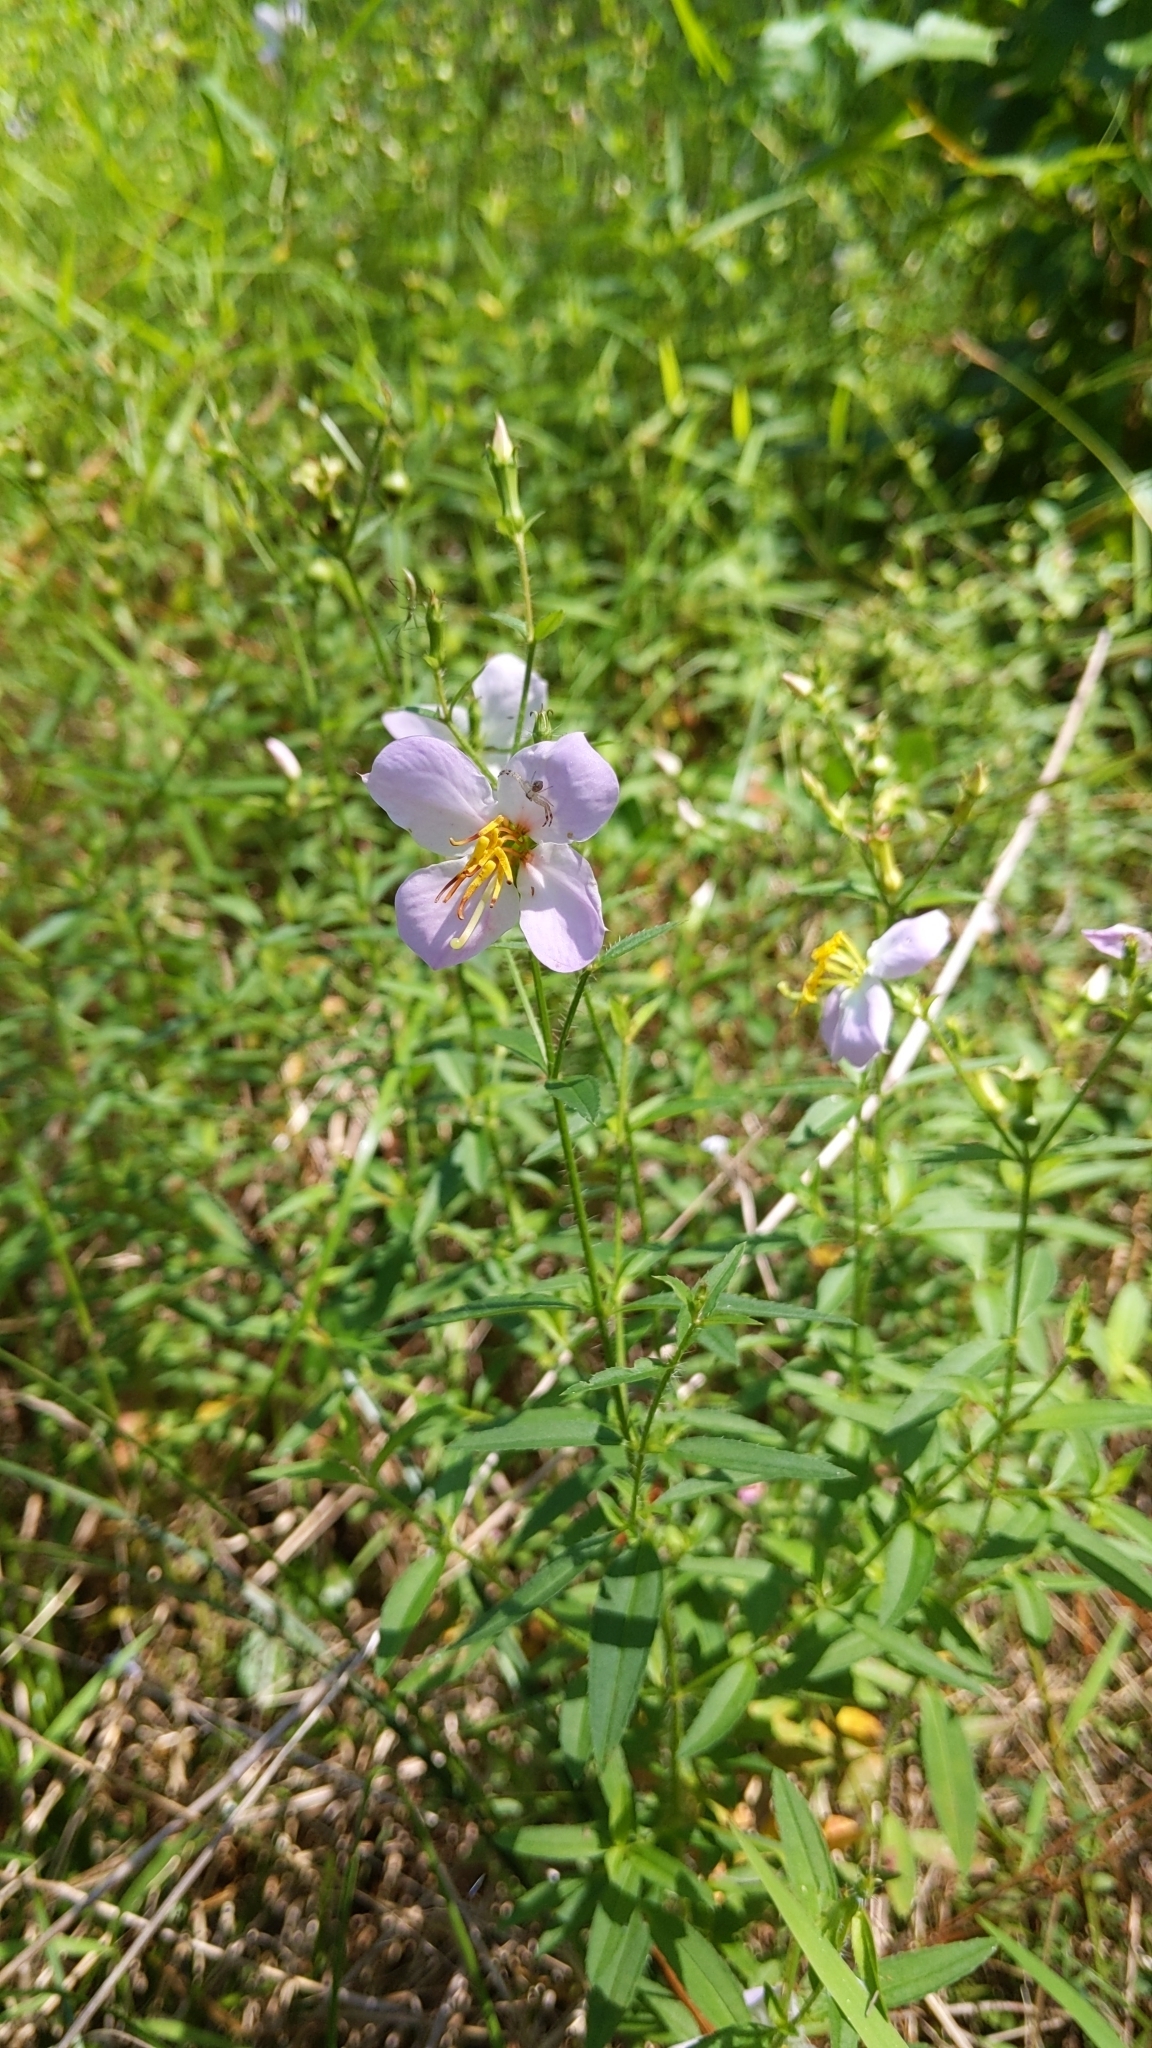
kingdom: Plantae
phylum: Tracheophyta
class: Magnoliopsida
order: Myrtales
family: Melastomataceae
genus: Rhexia
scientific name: Rhexia mariana
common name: Dull meadow-pitcher
